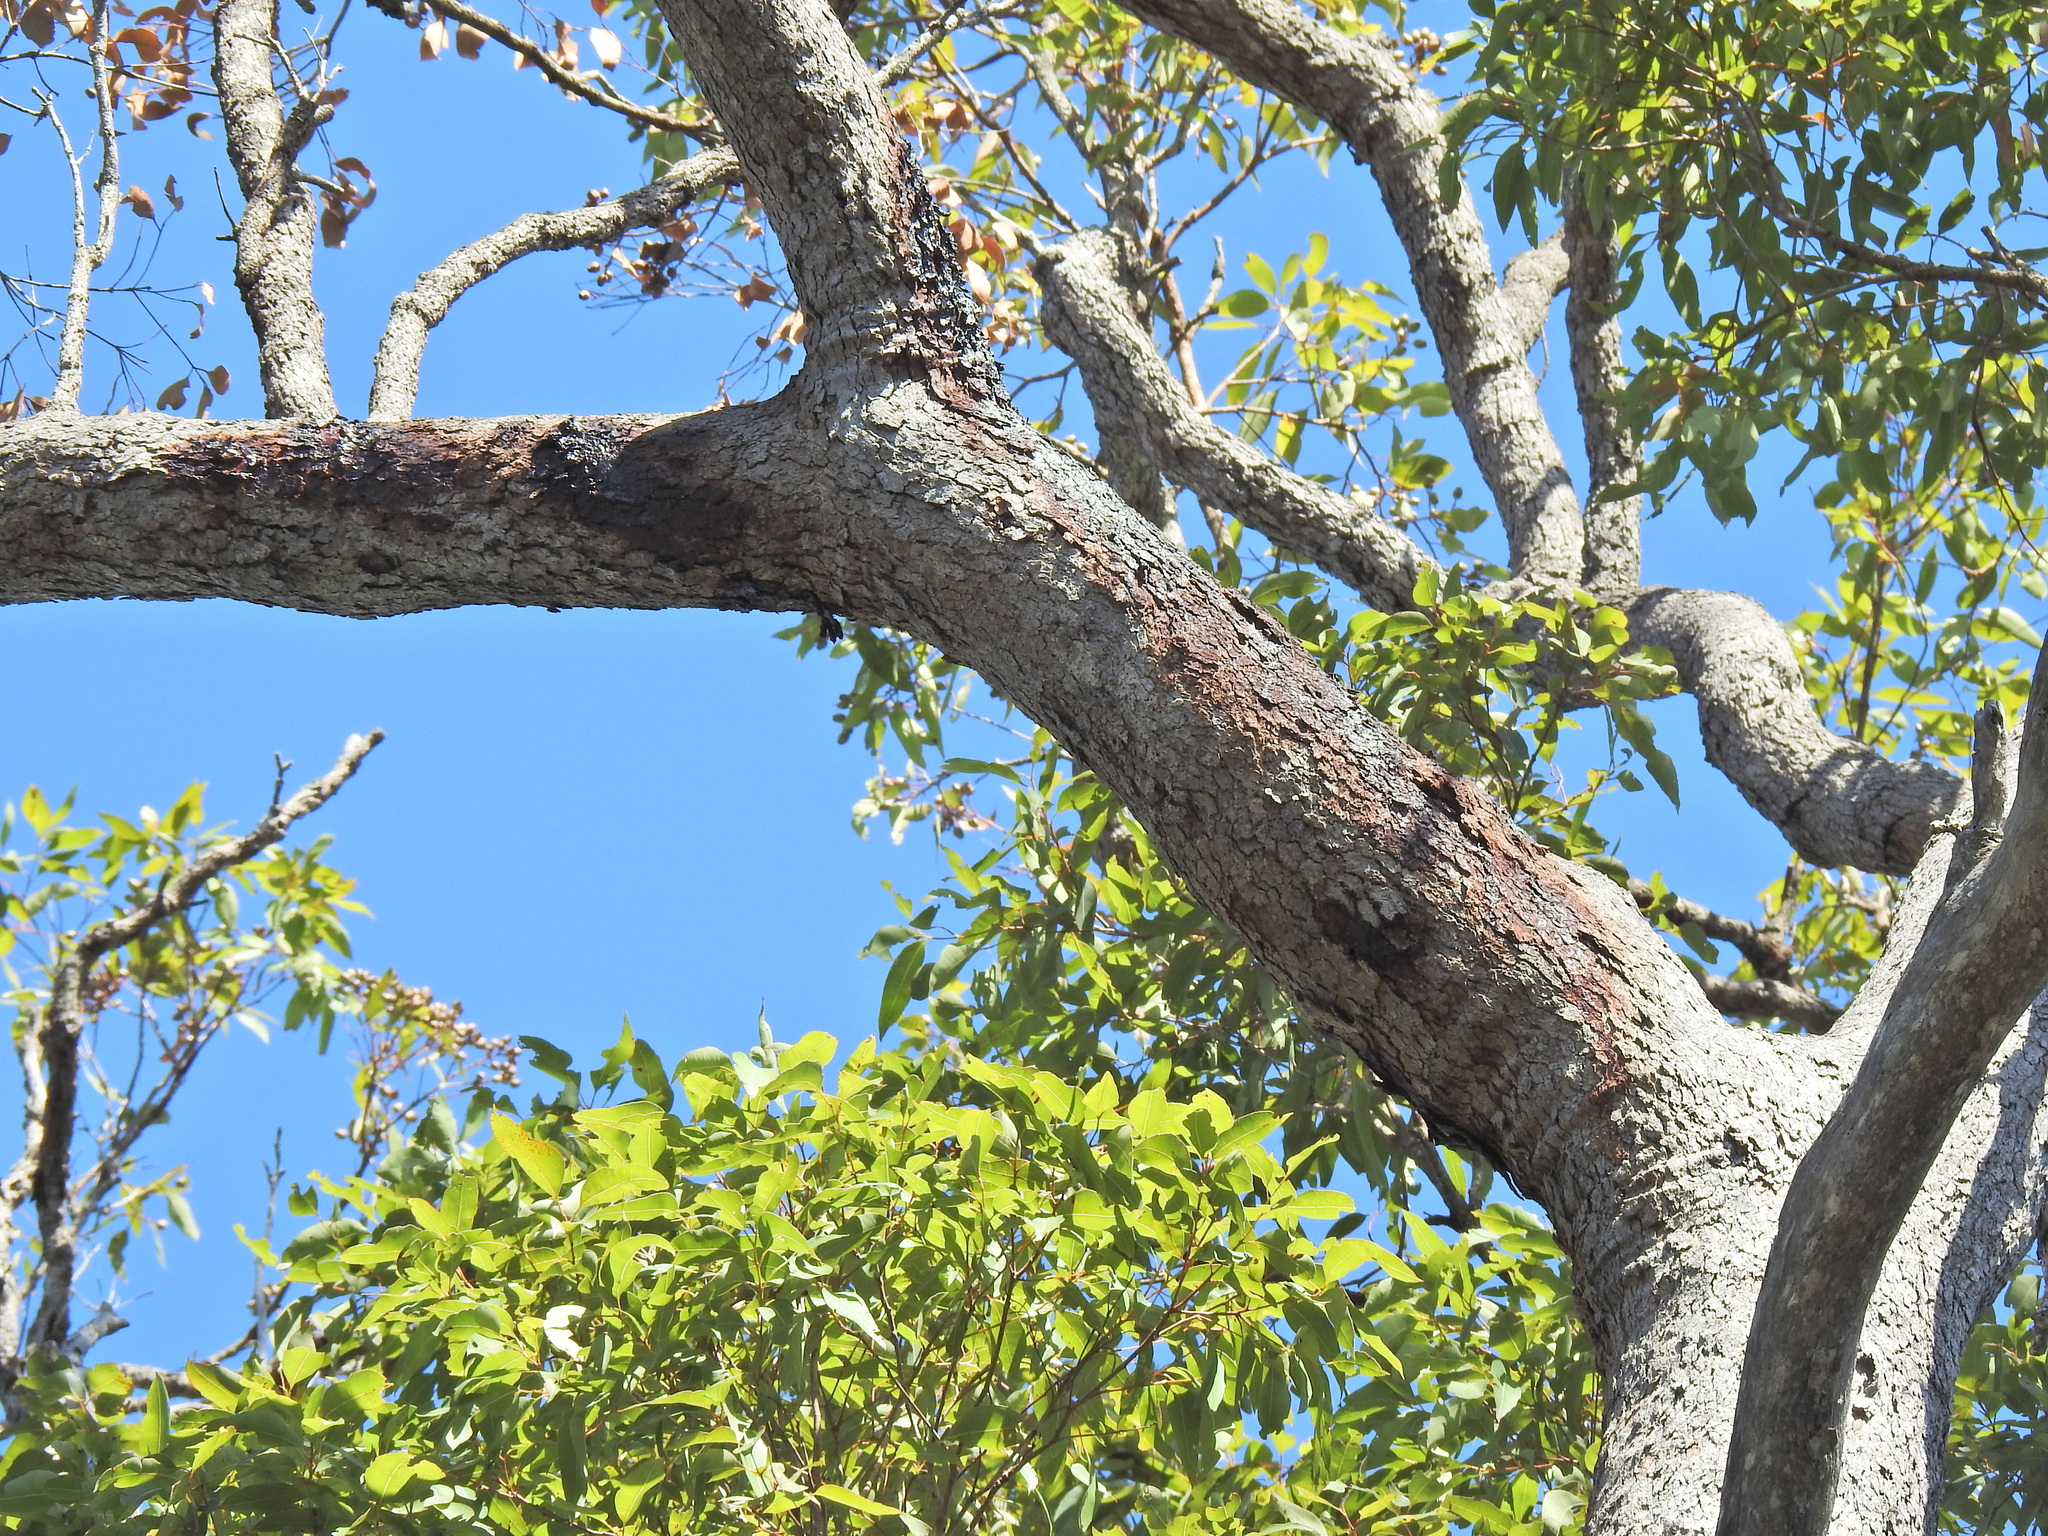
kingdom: Plantae
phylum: Tracheophyta
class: Magnoliopsida
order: Myrtales
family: Myrtaceae
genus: Corymbia
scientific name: Corymbia intermedia
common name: Pink-bloodwood
